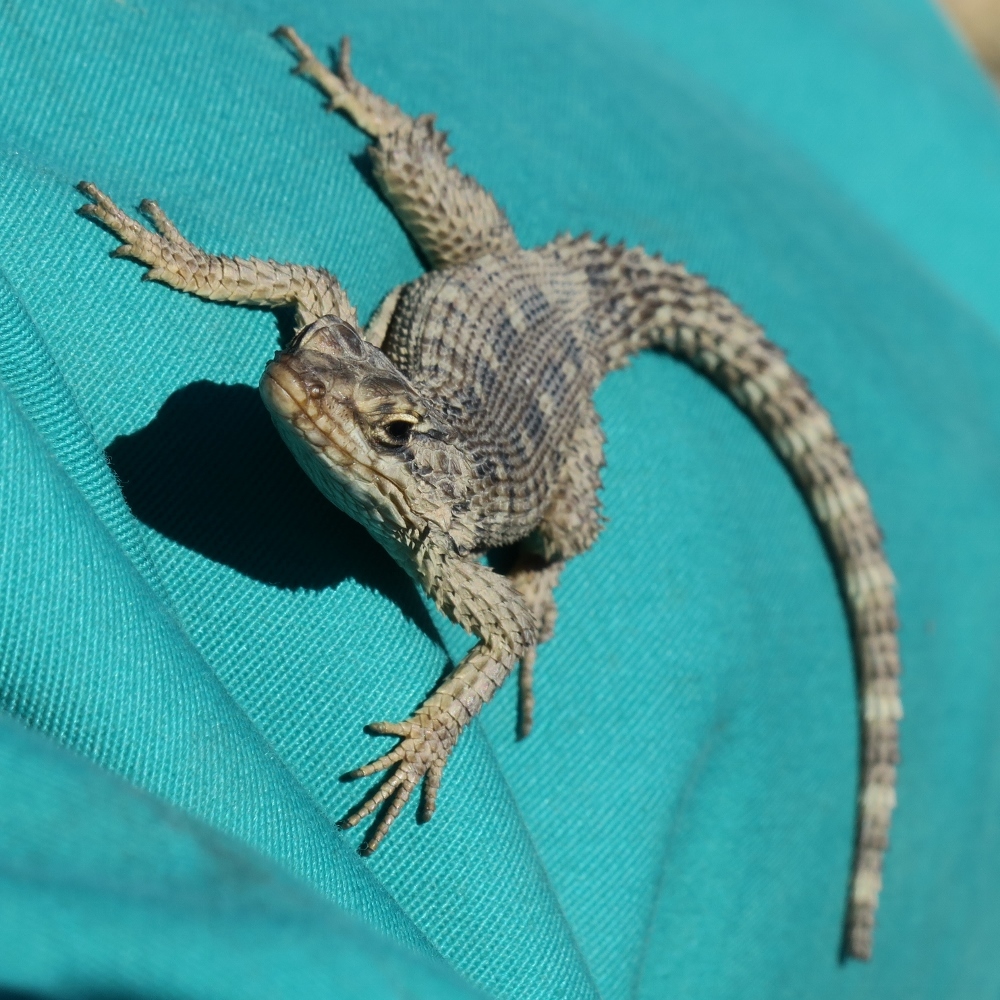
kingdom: Animalia
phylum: Chordata
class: Squamata
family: Cordylidae
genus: Karusasaurus
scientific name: Karusasaurus polyzonus
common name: Karoo girdled lizard
